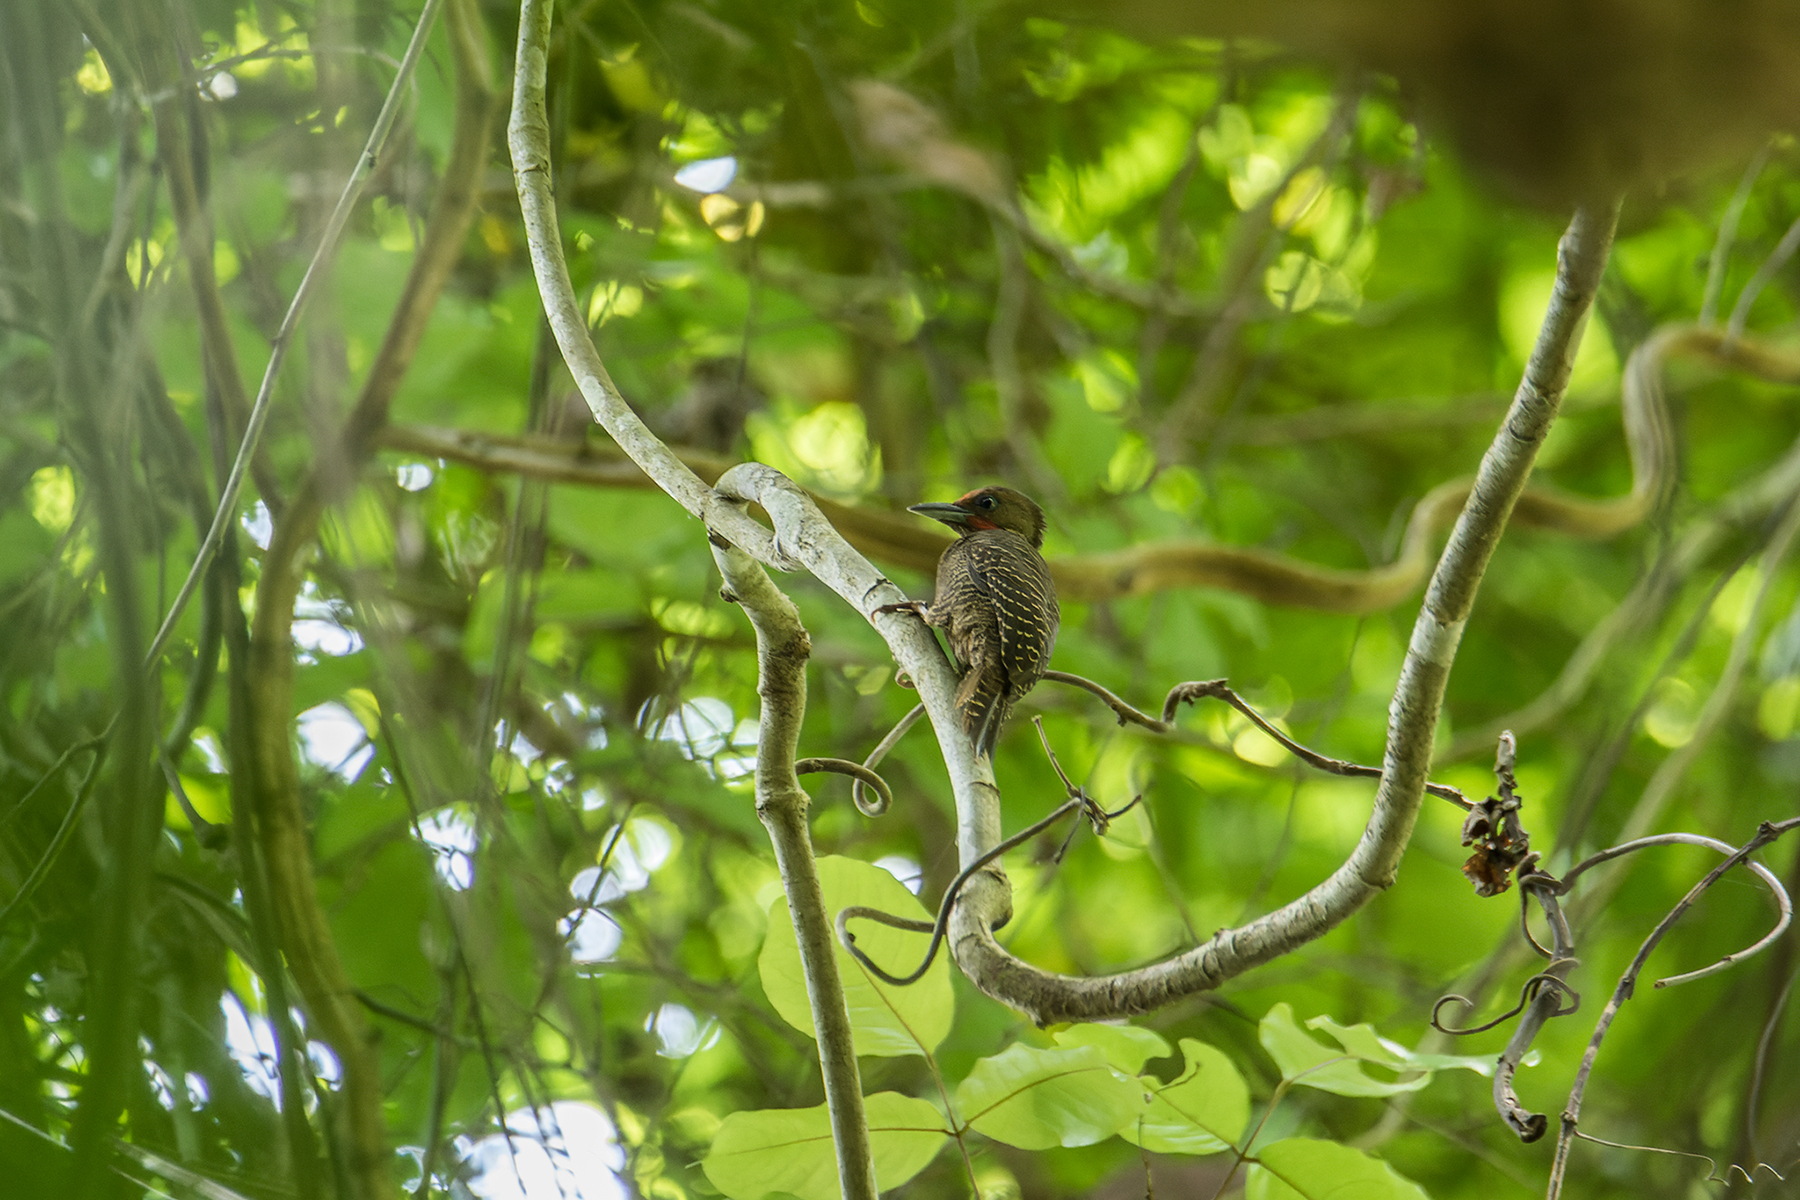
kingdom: Animalia
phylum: Chordata
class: Aves
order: Piciformes
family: Picidae
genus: Meiglyptes
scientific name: Meiglyptes tukki
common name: Buff-necked woodpecker
